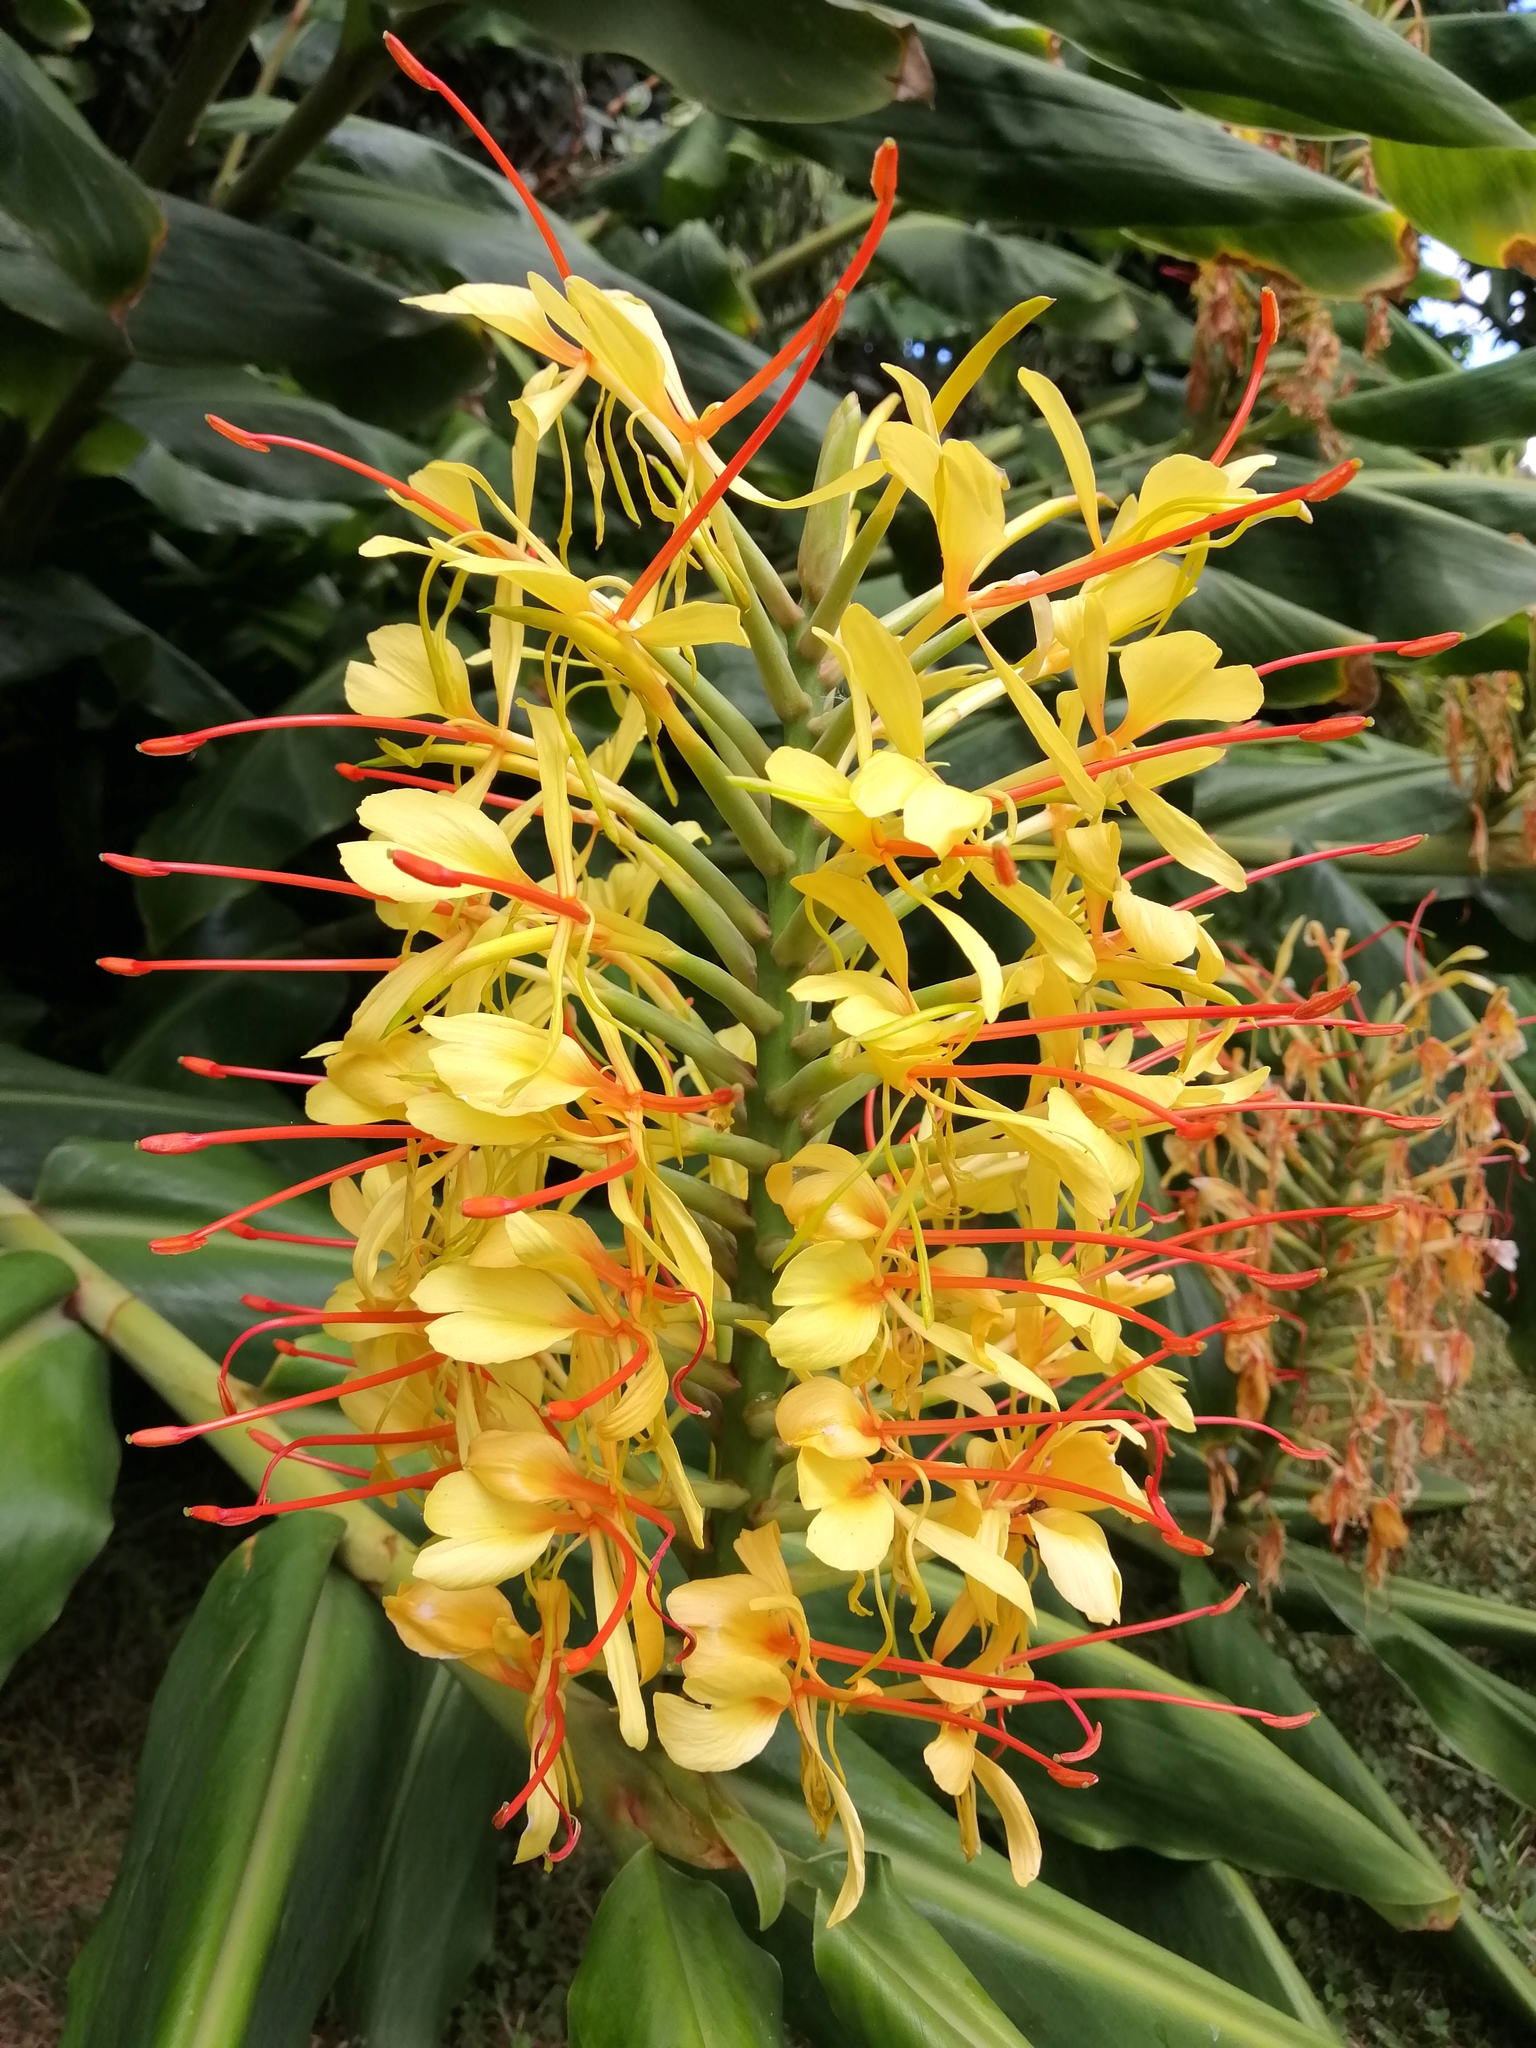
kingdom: Plantae
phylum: Tracheophyta
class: Liliopsida
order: Zingiberales
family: Zingiberaceae
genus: Hedychium
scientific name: Hedychium gardnerianum
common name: Himalayan ginger
